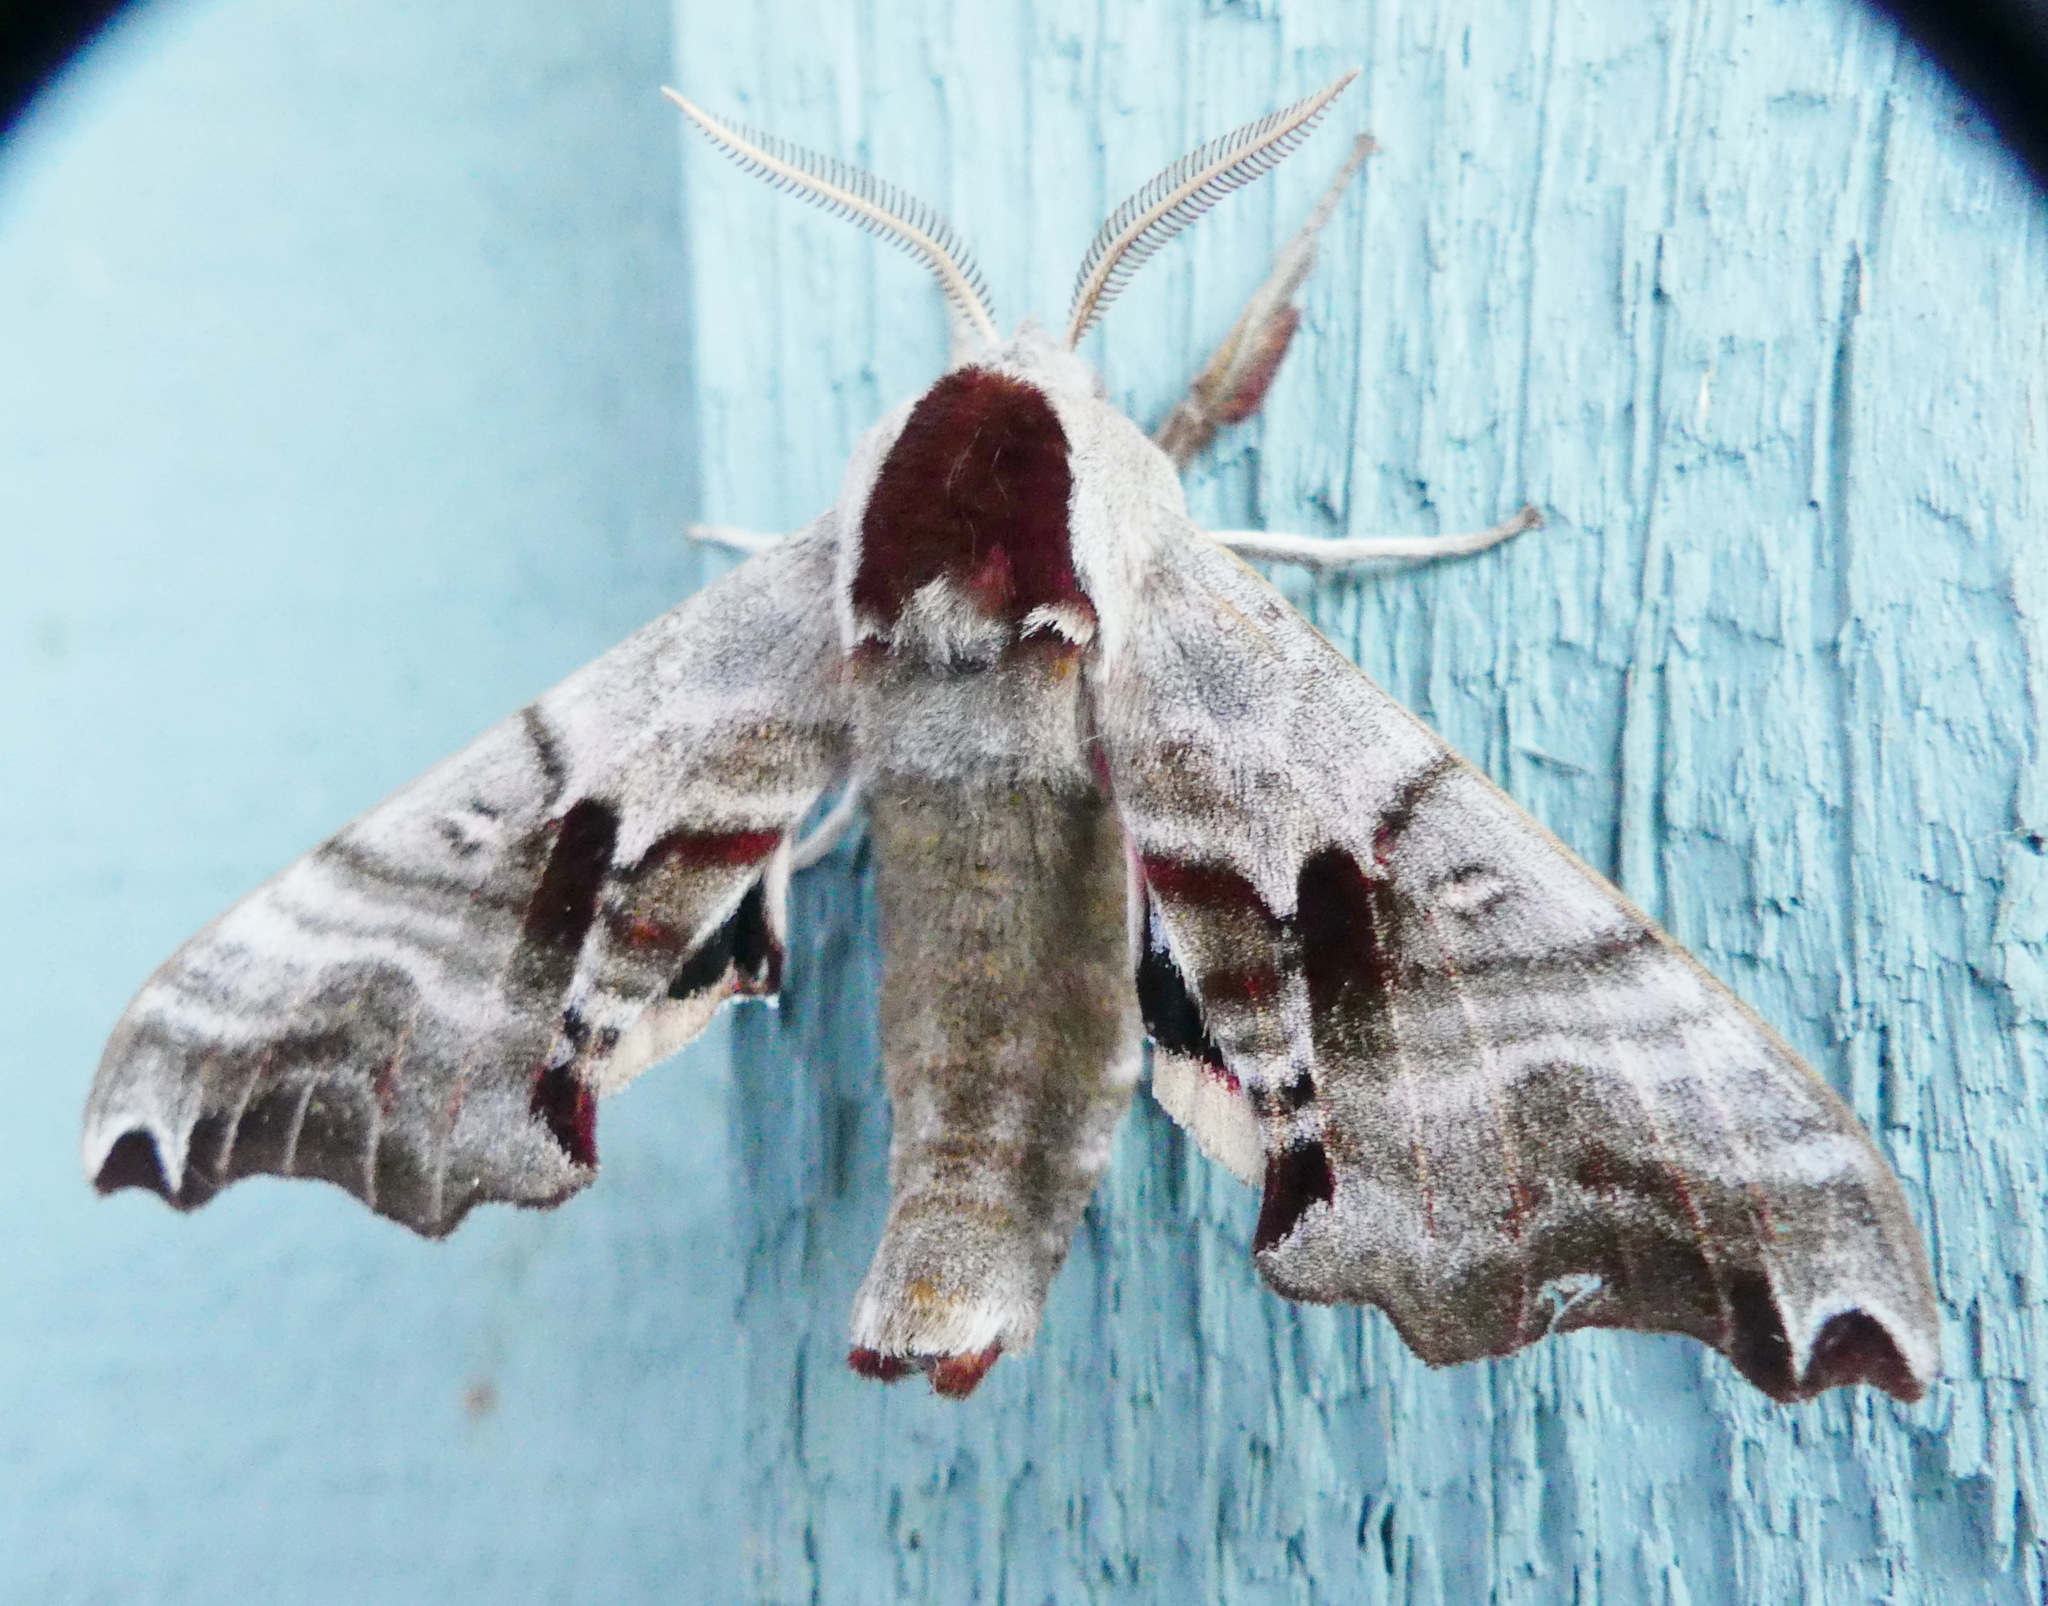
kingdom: Animalia
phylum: Arthropoda
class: Insecta
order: Lepidoptera
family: Sphingidae
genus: Smerinthus
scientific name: Smerinthus jamaicensis
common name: Twin spotted sphinx
